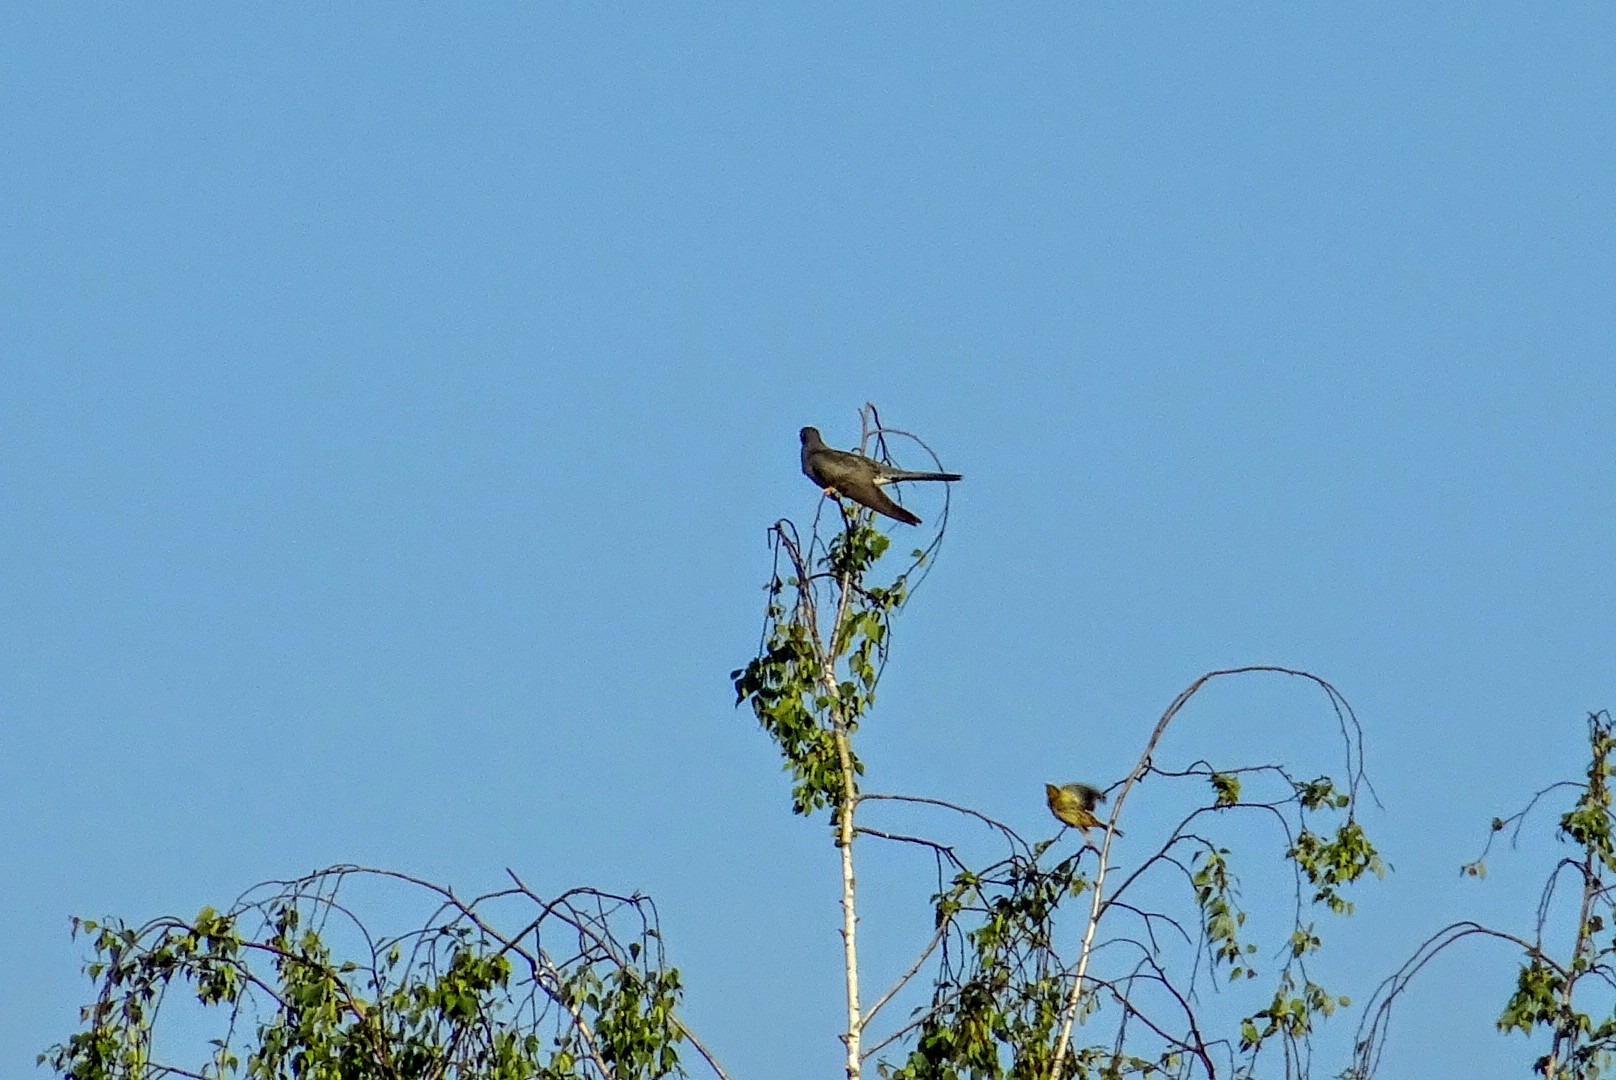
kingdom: Animalia
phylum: Chordata
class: Aves
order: Cuculiformes
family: Cuculidae
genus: Cuculus
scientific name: Cuculus canorus
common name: Common cuckoo
